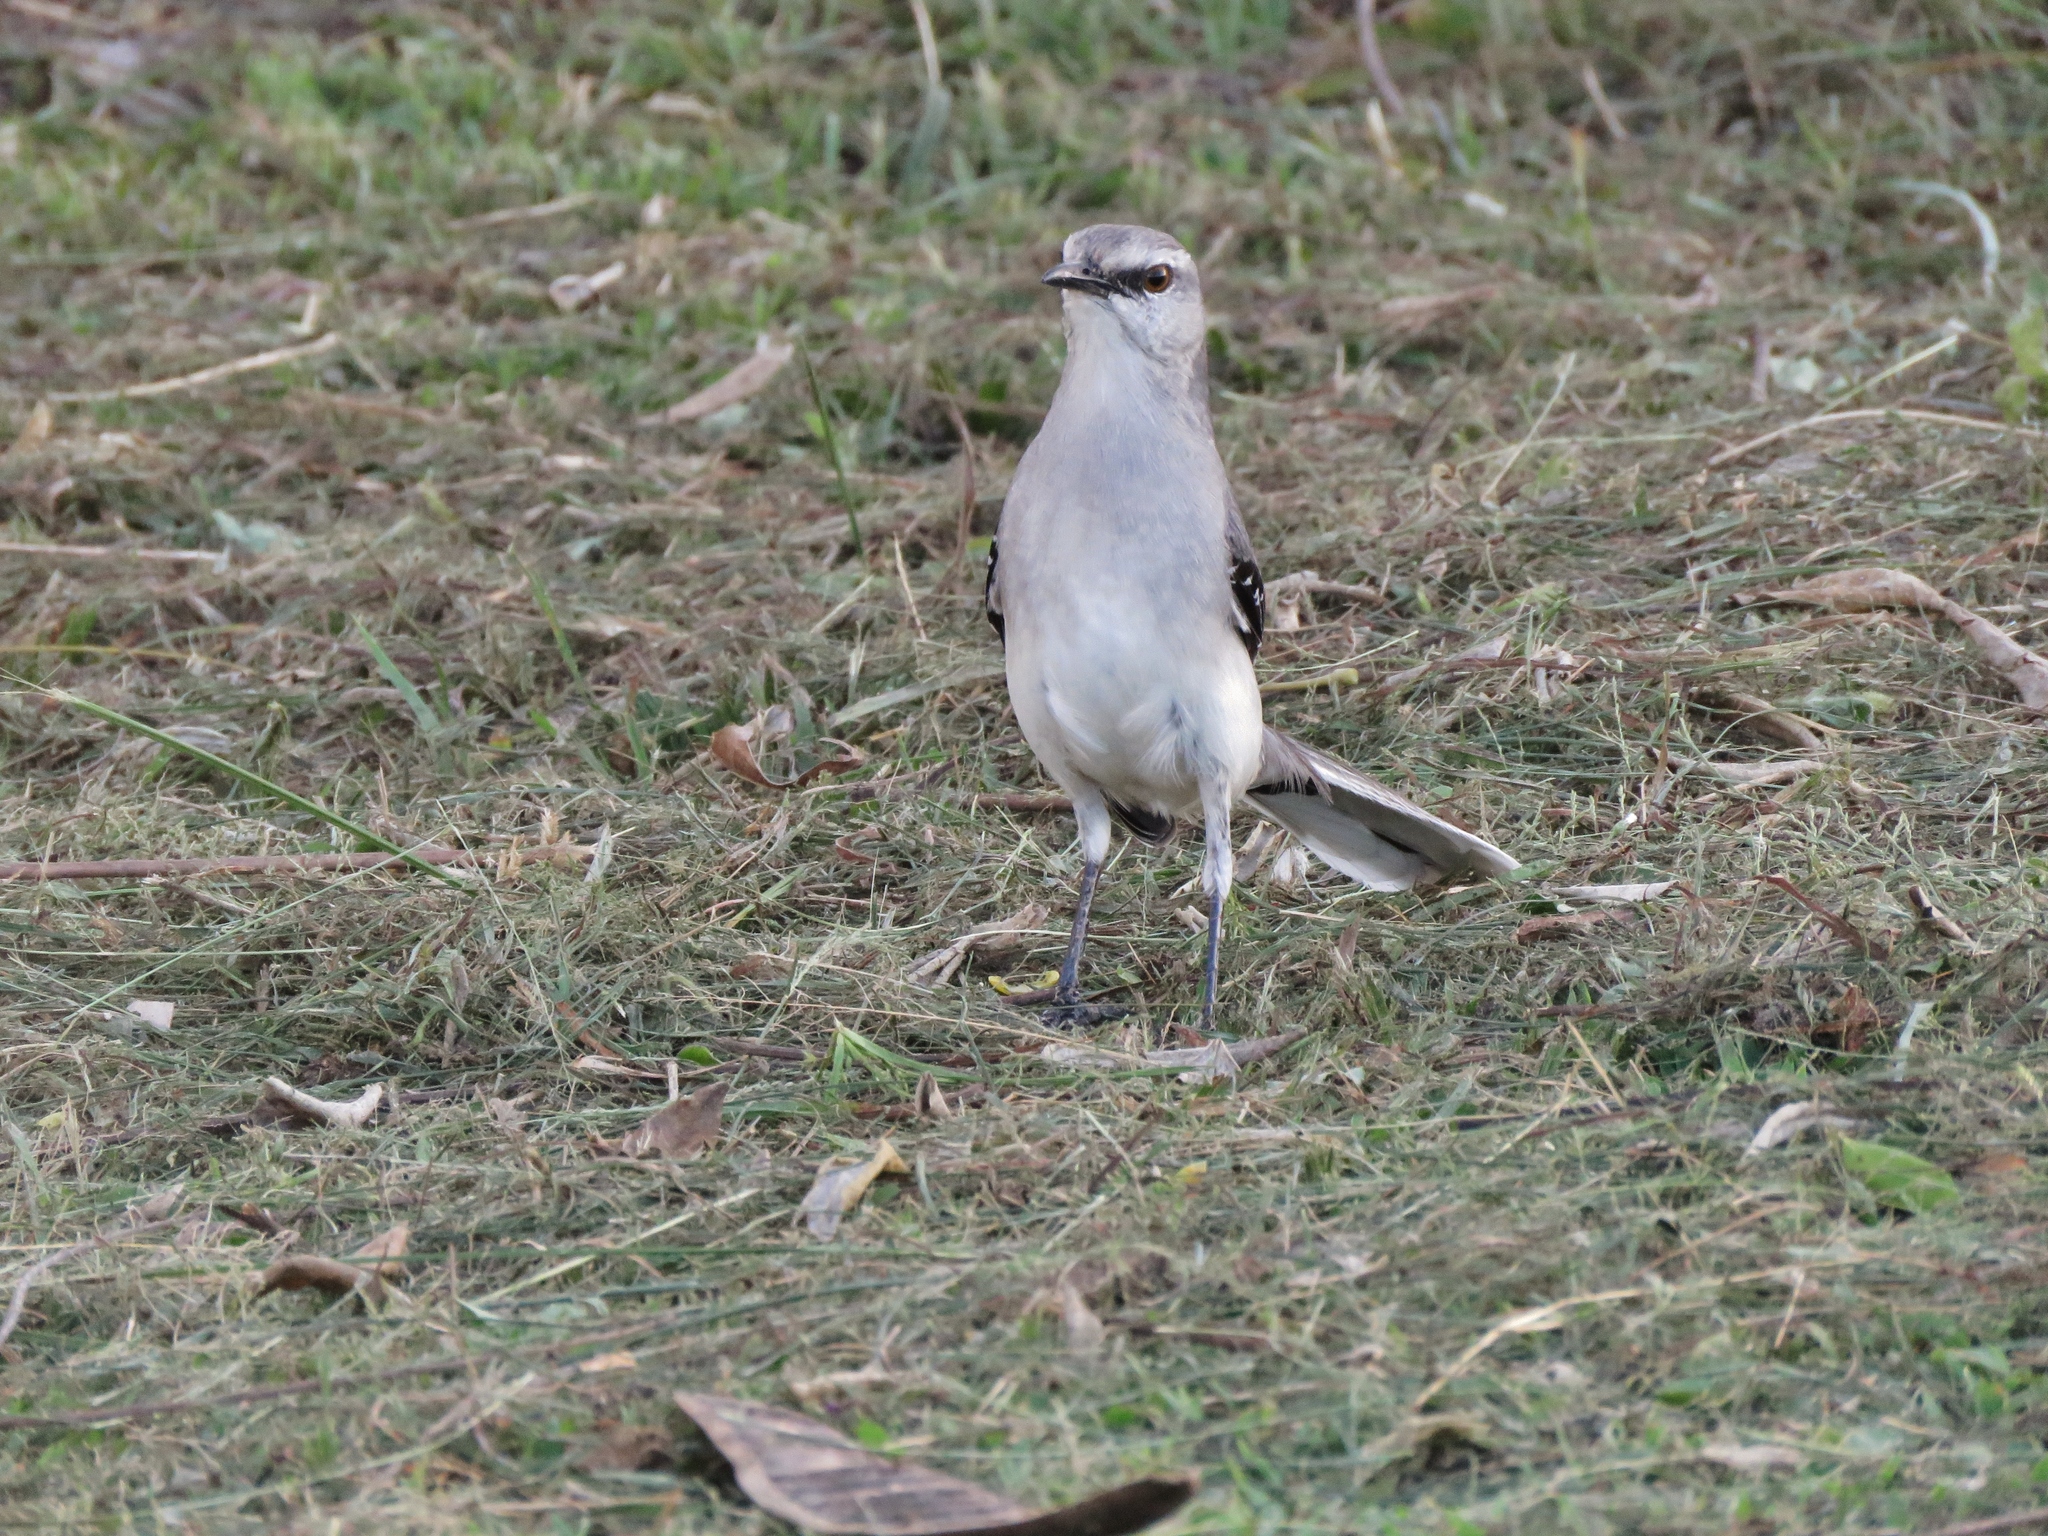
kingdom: Animalia
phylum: Chordata
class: Aves
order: Passeriformes
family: Mimidae
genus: Mimus
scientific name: Mimus gilvus
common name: Tropical mockingbird
